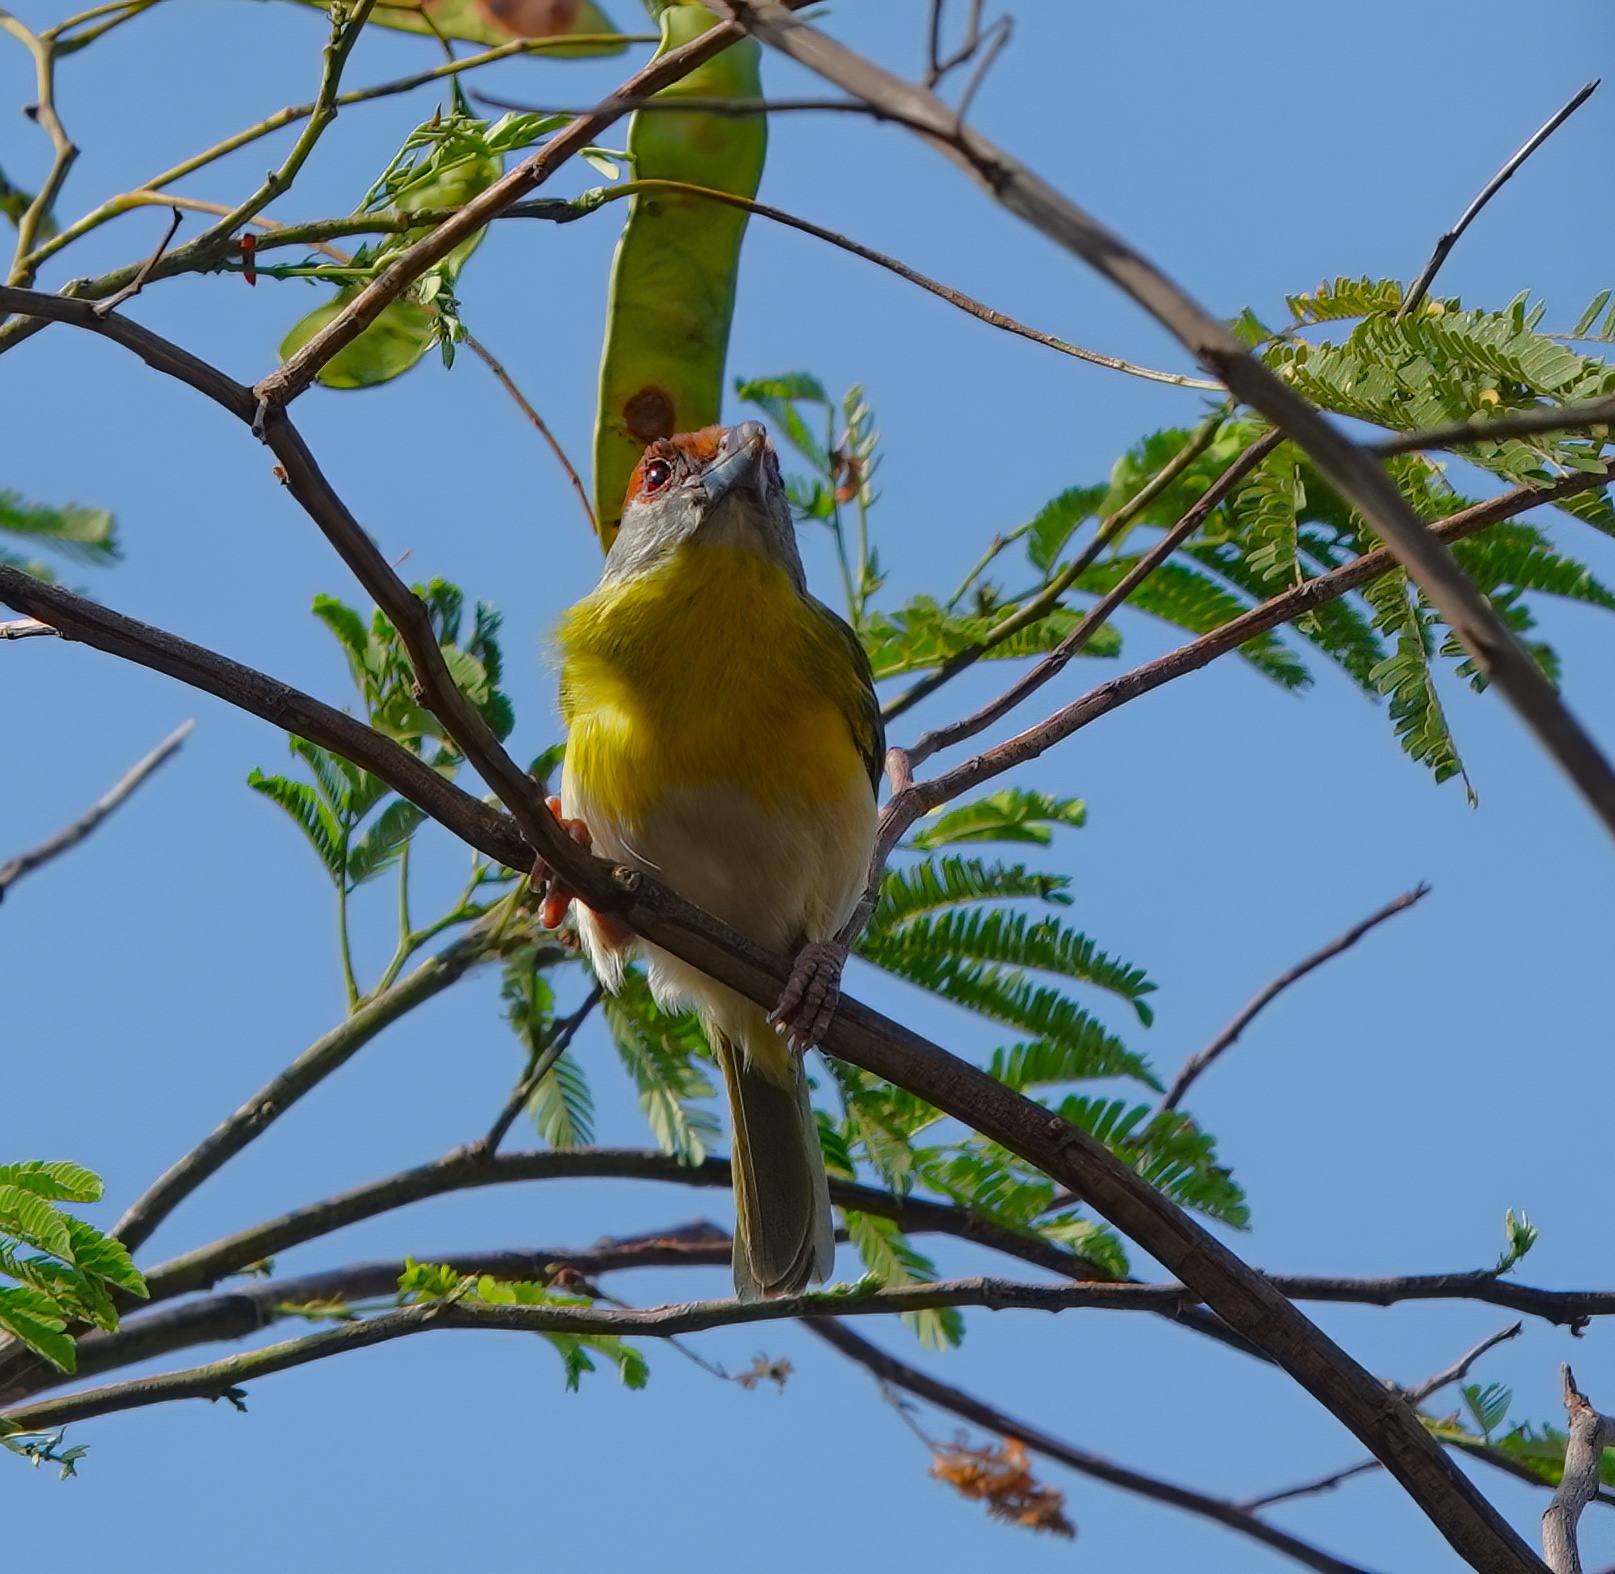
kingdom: Animalia
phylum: Chordata
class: Aves
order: Passeriformes
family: Vireonidae
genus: Cyclarhis
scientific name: Cyclarhis gujanensis
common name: Rufous-browed peppershrike
